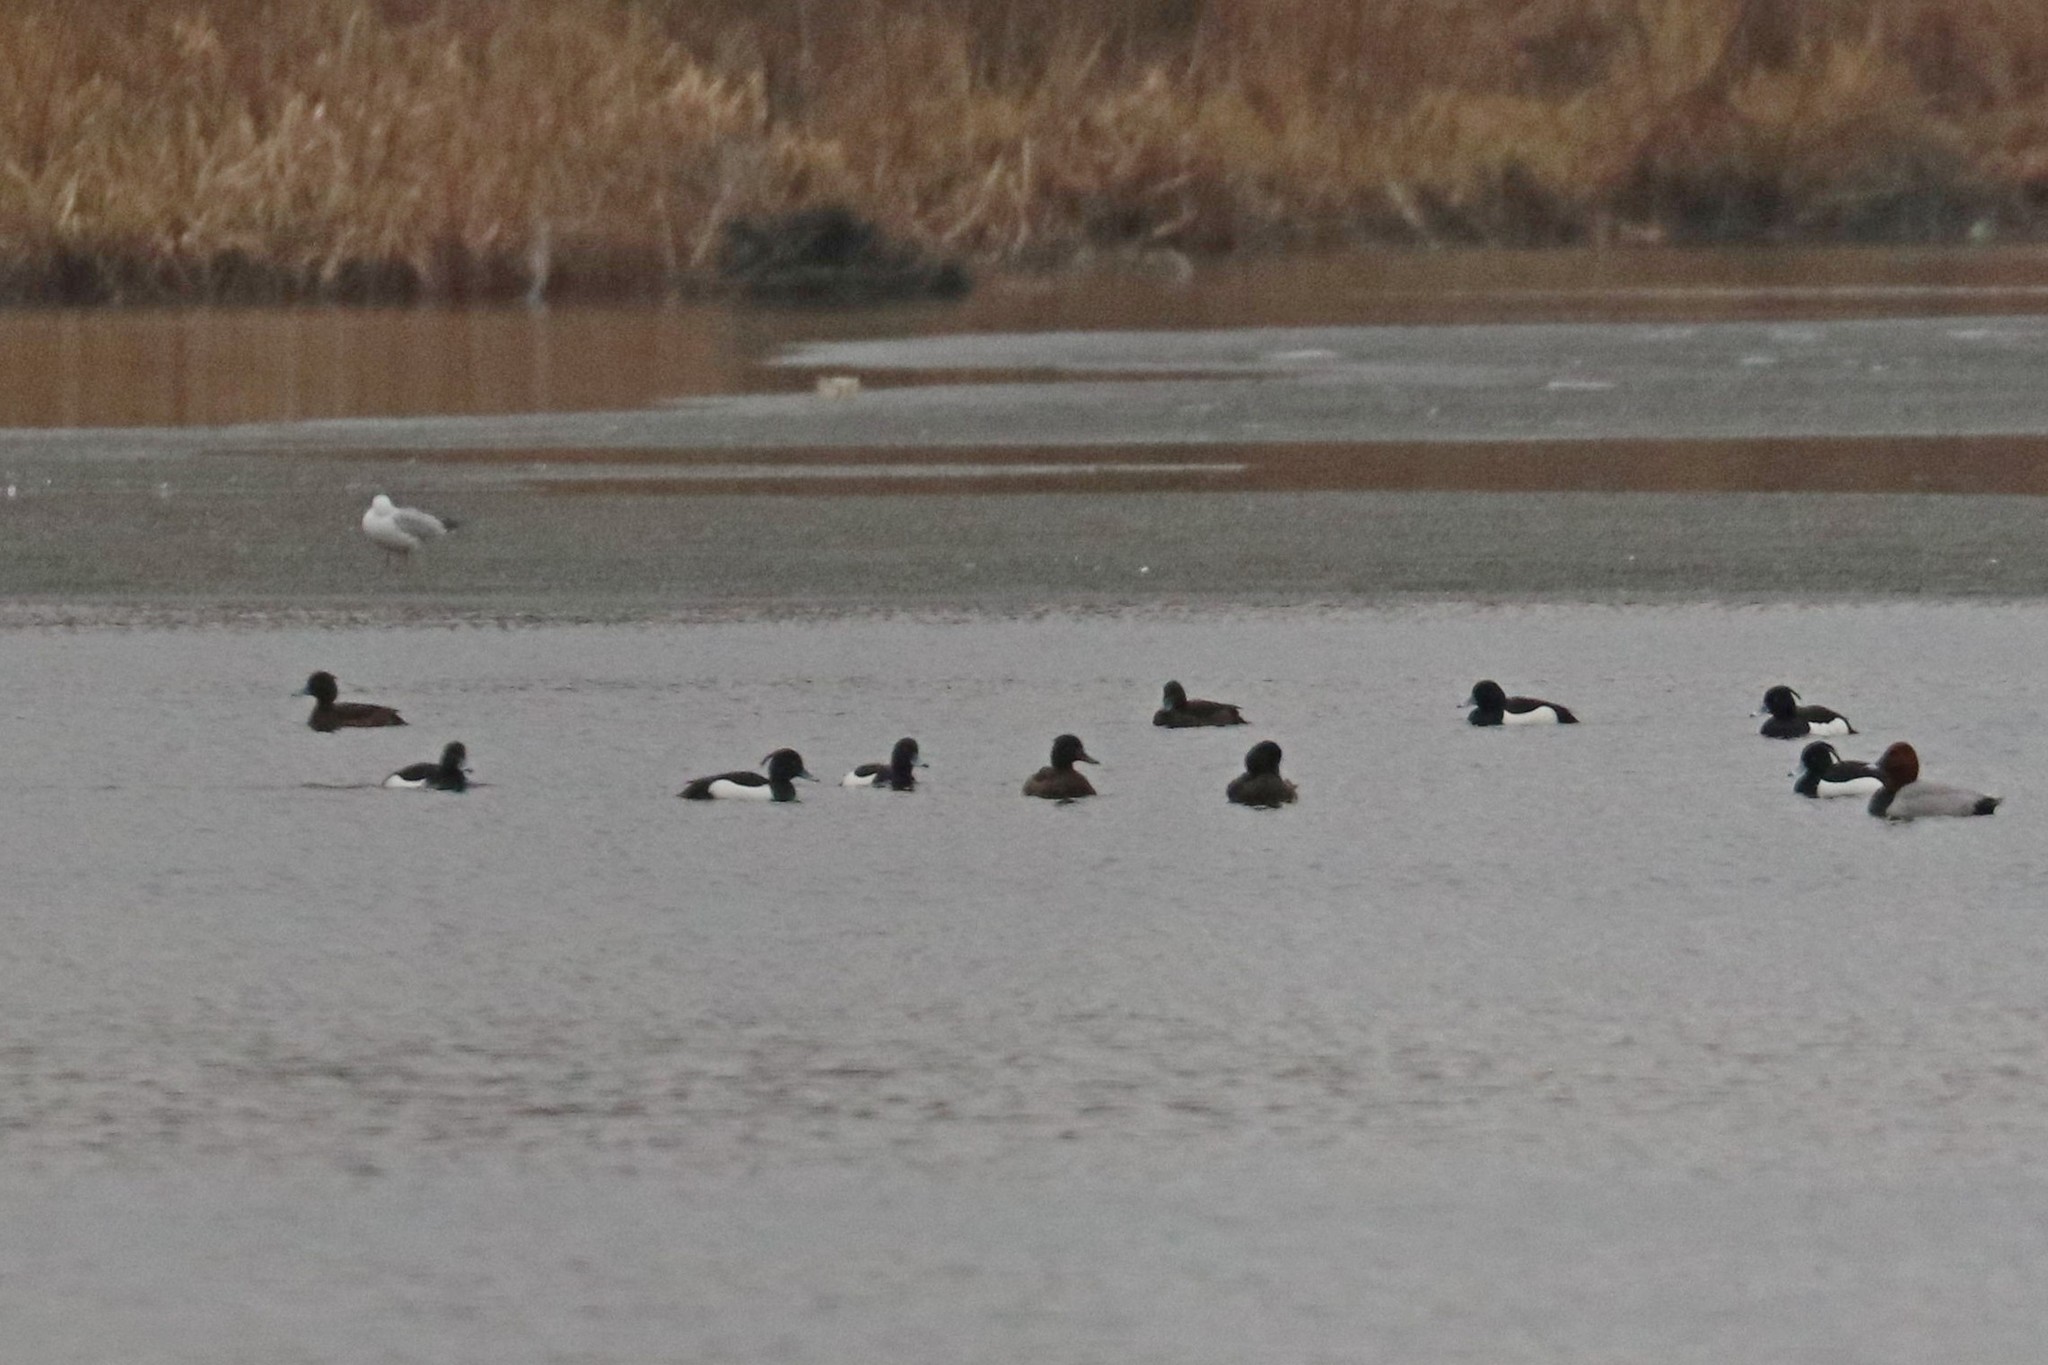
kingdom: Animalia
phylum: Chordata
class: Aves
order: Anseriformes
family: Anatidae
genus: Aythya
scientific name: Aythya fuligula
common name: Tufted duck
